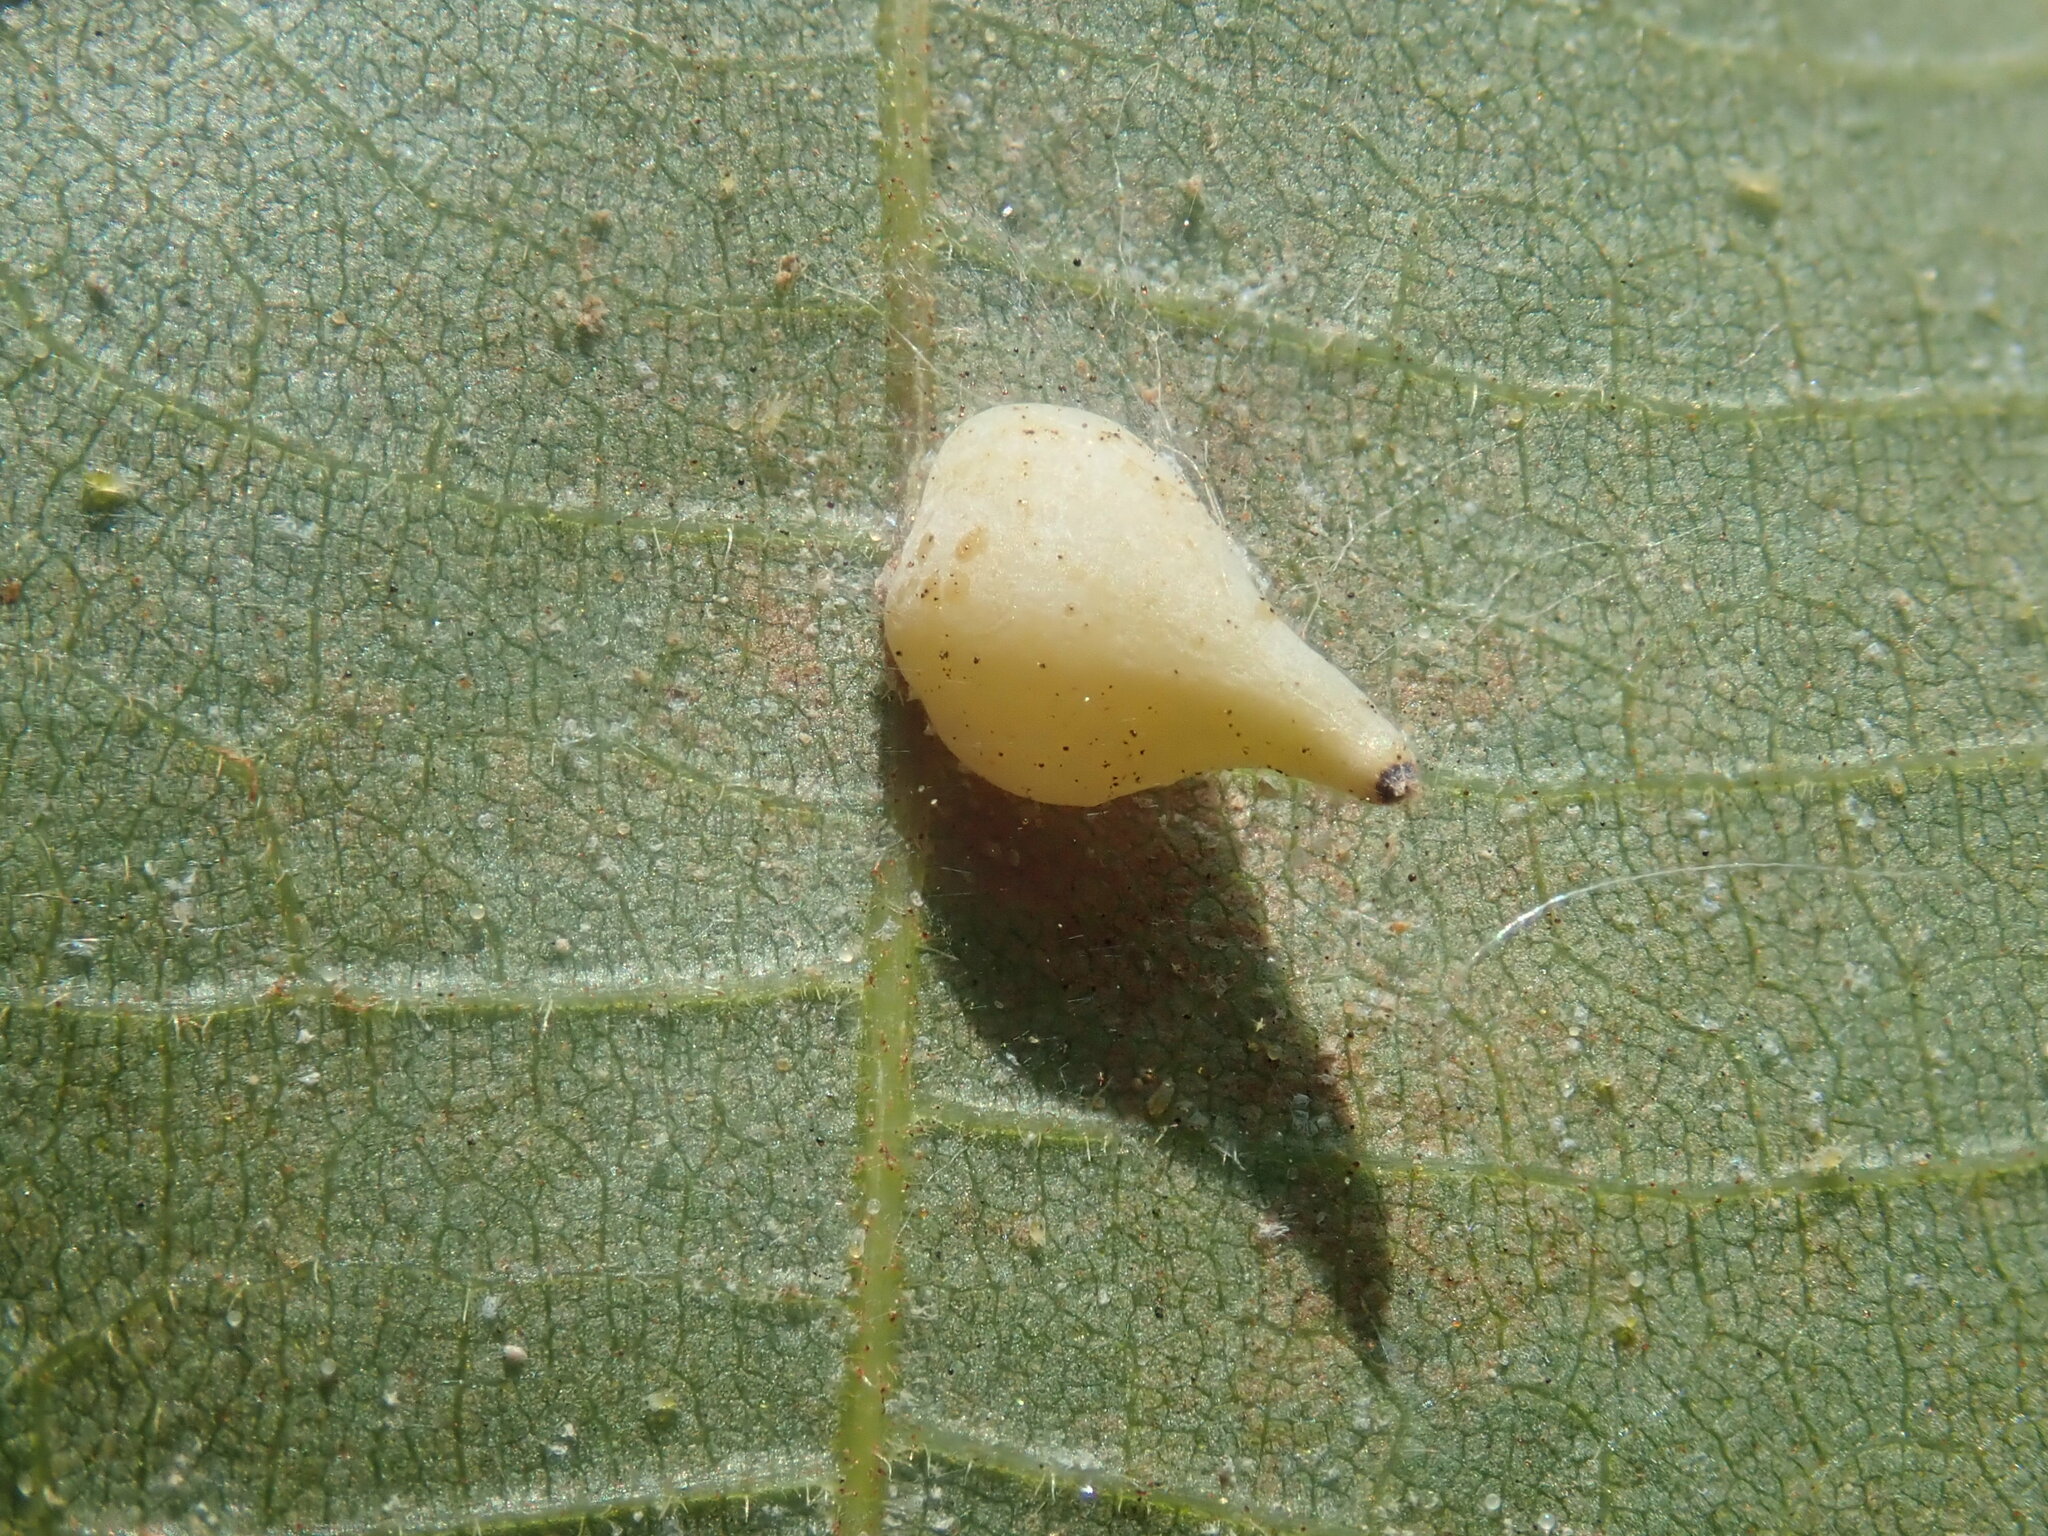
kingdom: Animalia
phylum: Arthropoda
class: Insecta
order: Diptera
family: Cecidomyiidae
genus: Caryomyia
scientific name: Caryomyia caryaecola
